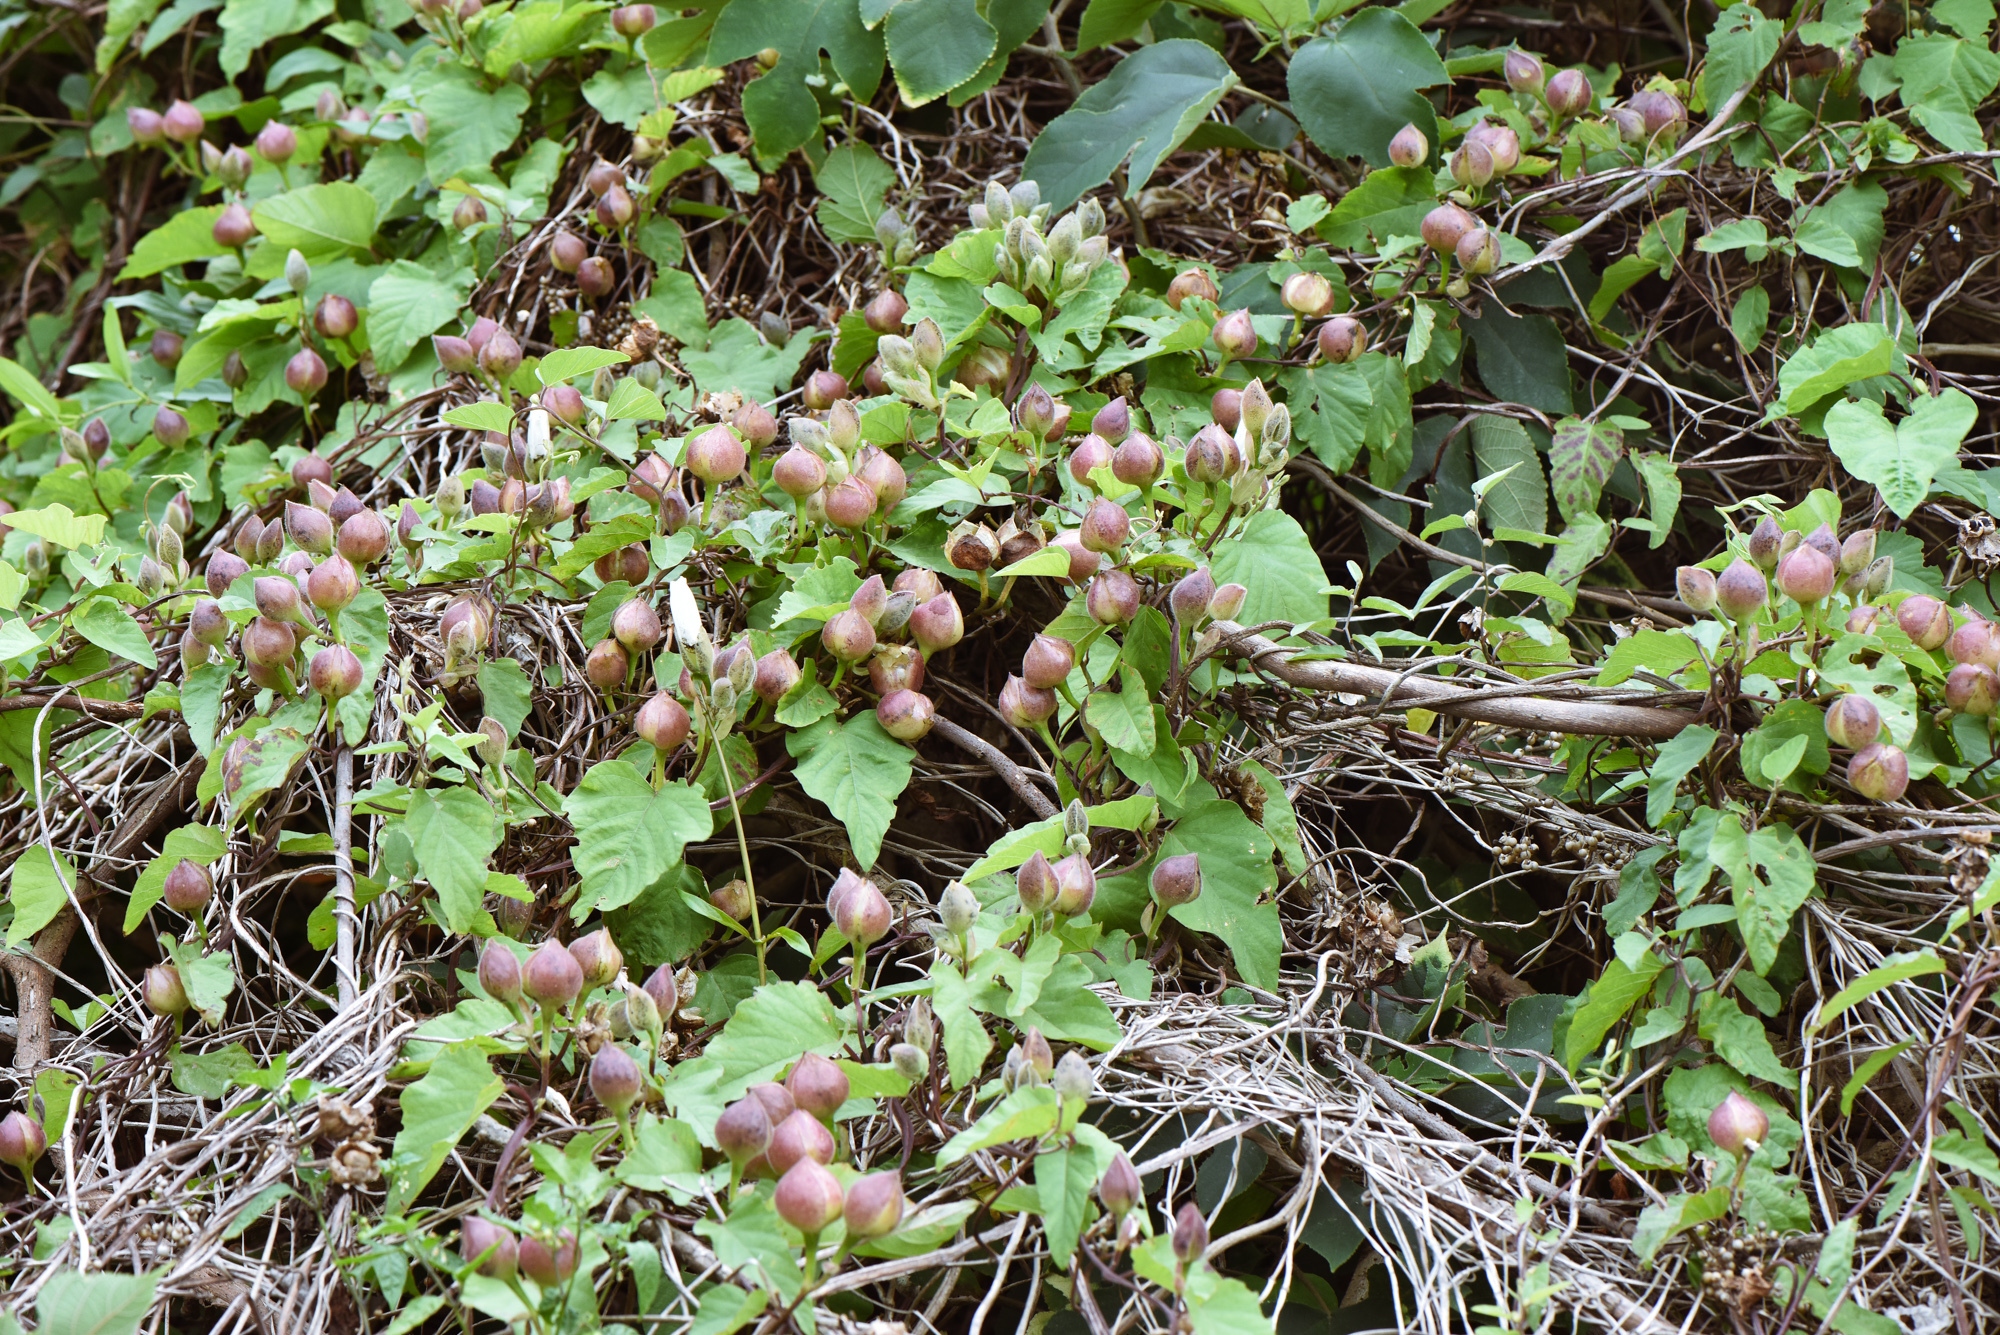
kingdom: Plantae
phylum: Tracheophyta
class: Magnoliopsida
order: Solanales
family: Convolvulaceae
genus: Operculina
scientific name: Operculina turpethum
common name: Transparent wood-rose
